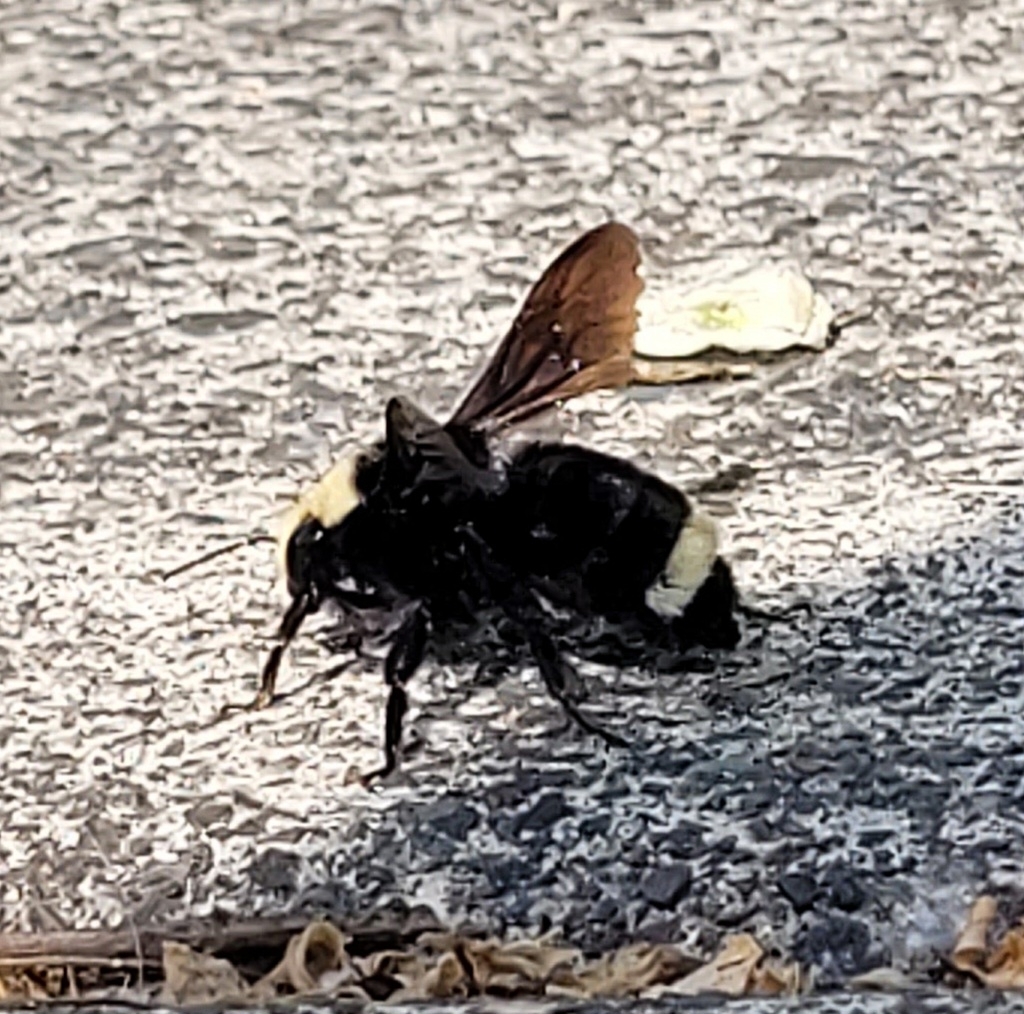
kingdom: Animalia
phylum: Arthropoda
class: Insecta
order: Hymenoptera
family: Apidae
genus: Bombus
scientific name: Bombus vosnesenskii
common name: Vosnesensky bumble bee
